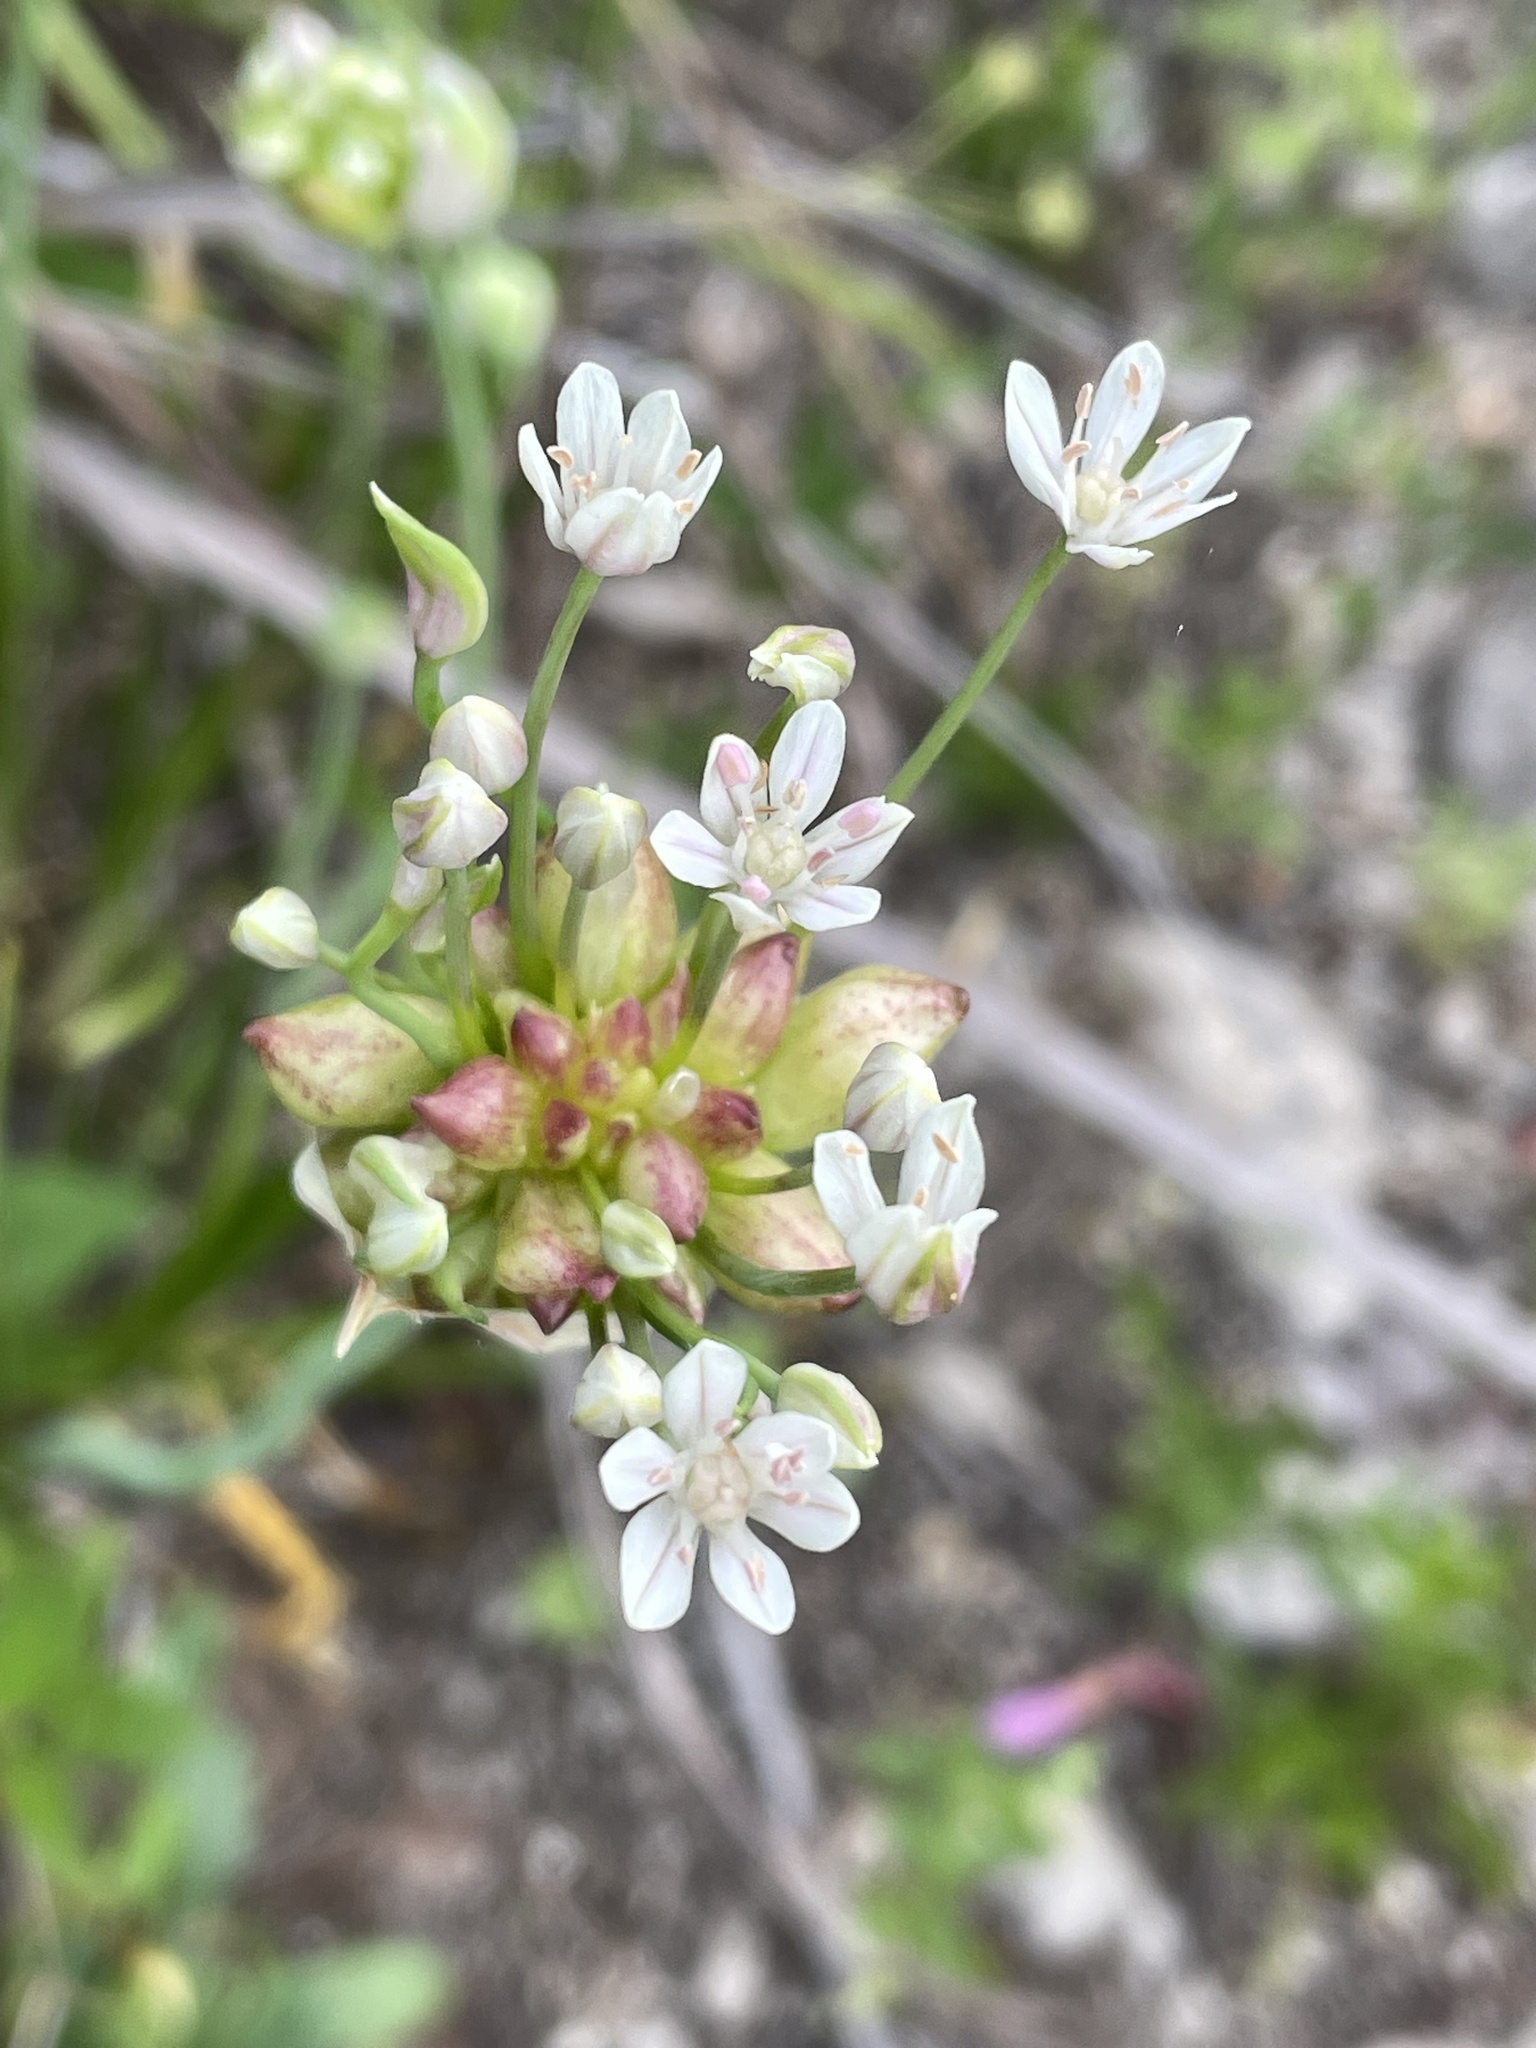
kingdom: Plantae
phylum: Tracheophyta
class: Liliopsida
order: Asparagales
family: Amaryllidaceae
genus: Allium
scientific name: Allium canadense
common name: Meadow garlic
